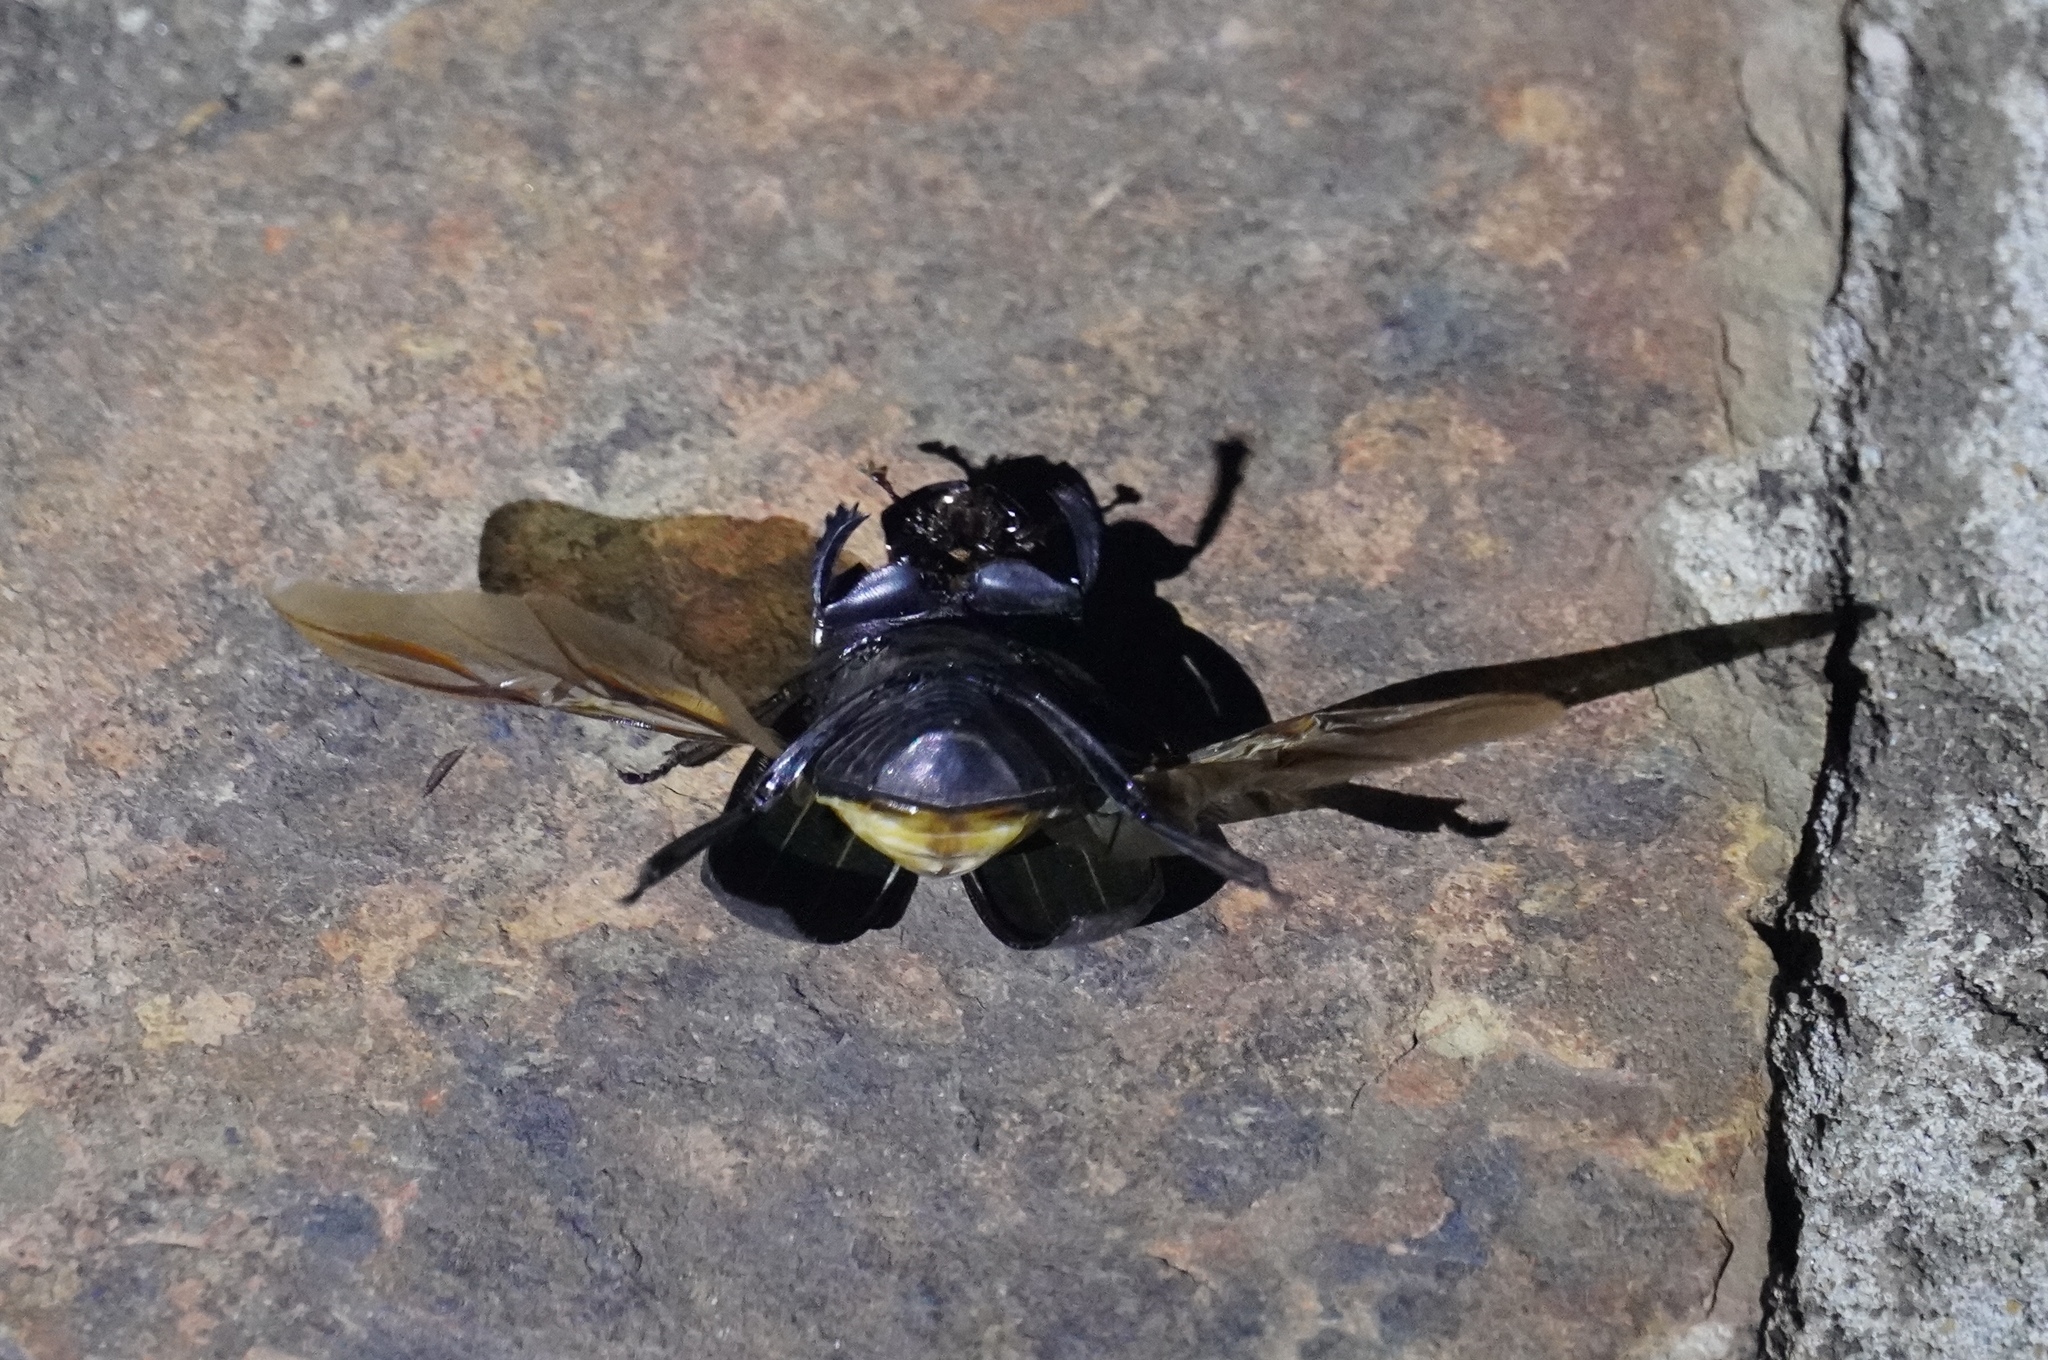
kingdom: Animalia
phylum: Arthropoda
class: Insecta
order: Coleoptera
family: Scarabaeidae
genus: Chalconotus
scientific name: Chalconotus convexus
